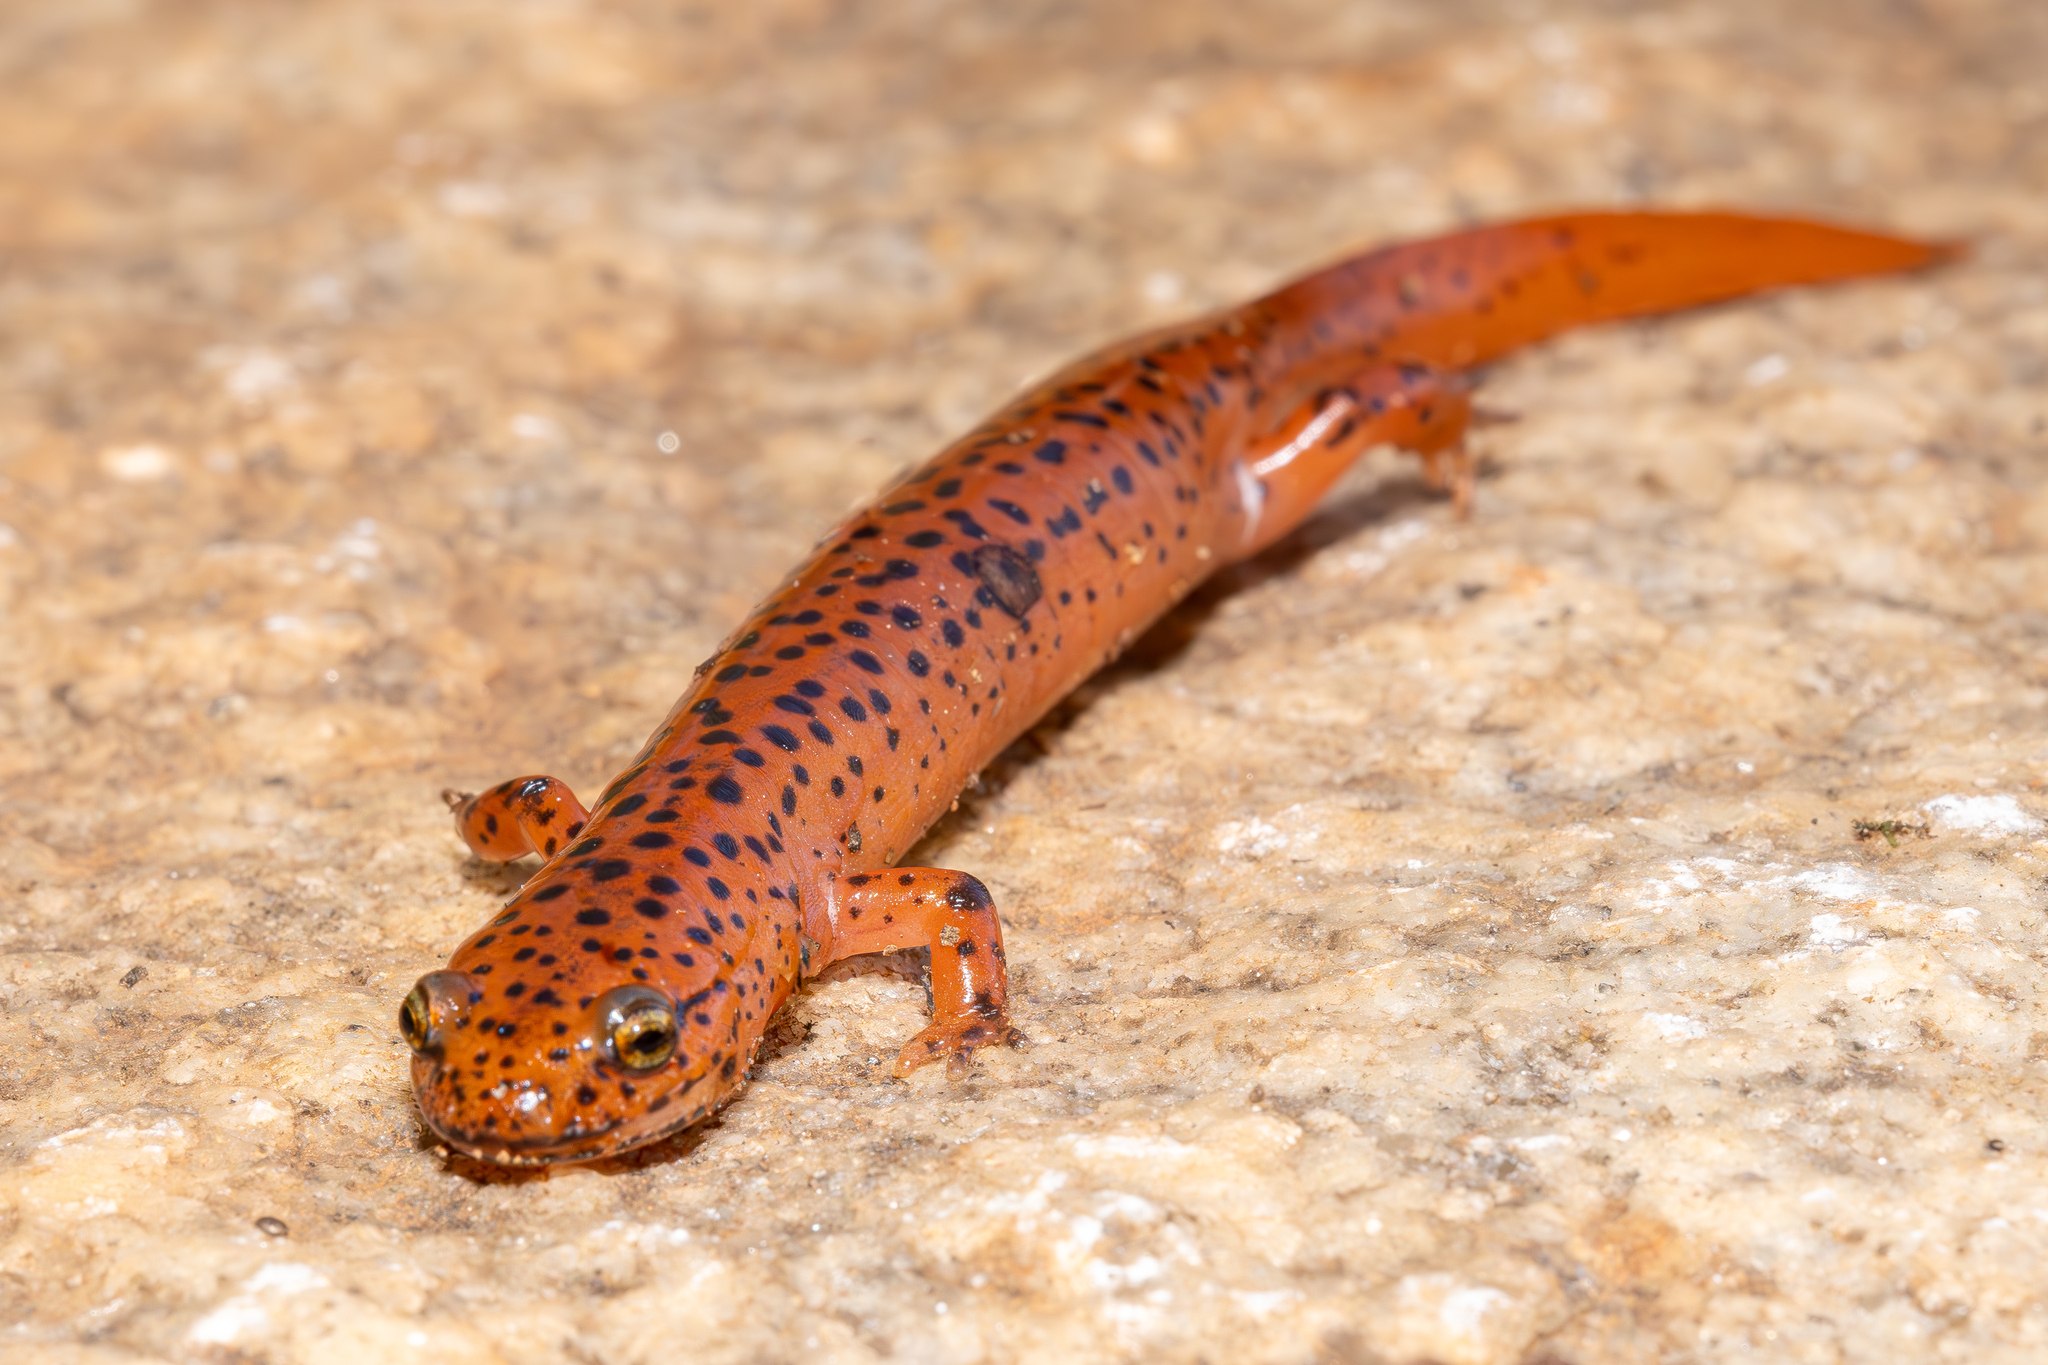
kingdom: Animalia
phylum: Chordata
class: Amphibia
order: Caudata
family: Plethodontidae
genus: Pseudotriton
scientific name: Pseudotriton ruber
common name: Red salamander
